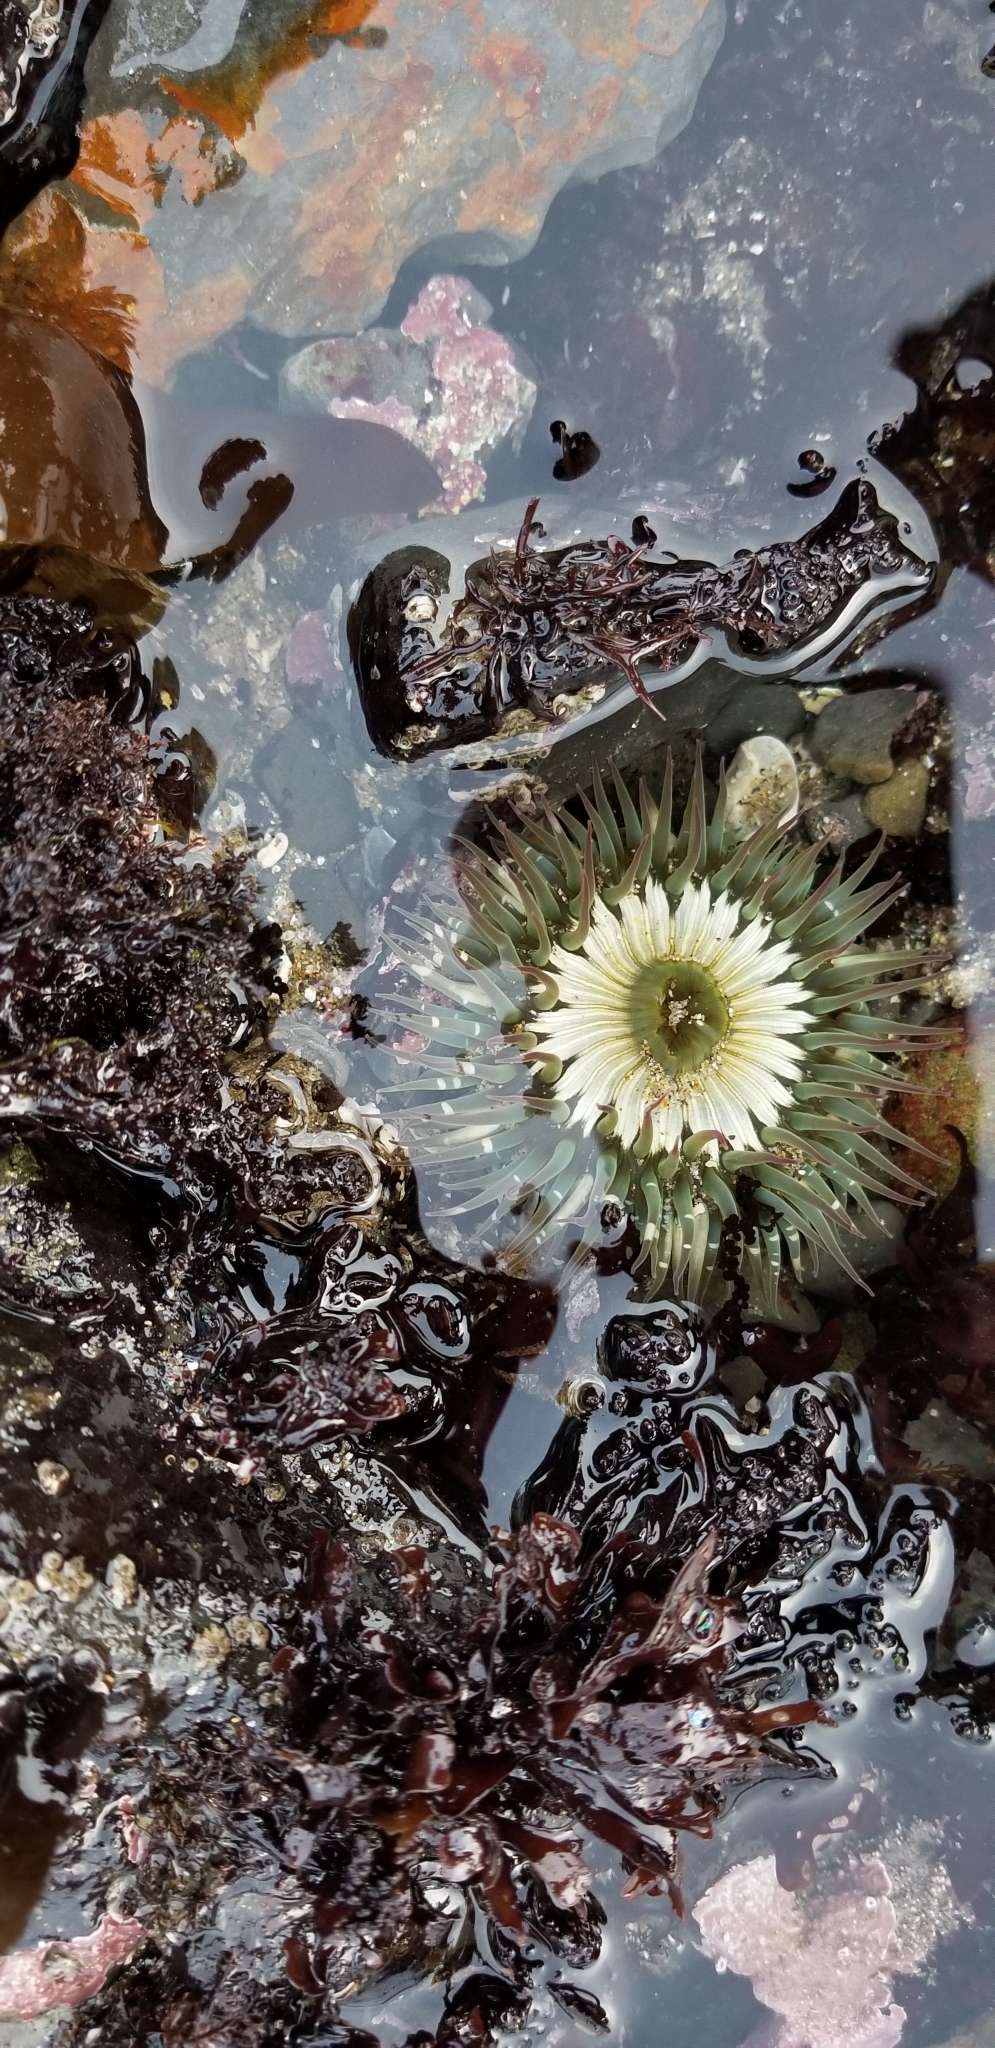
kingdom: Animalia
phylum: Cnidaria
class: Anthozoa
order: Actiniaria
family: Actiniidae
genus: Anthopleura
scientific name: Anthopleura sola
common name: Sun anemone
